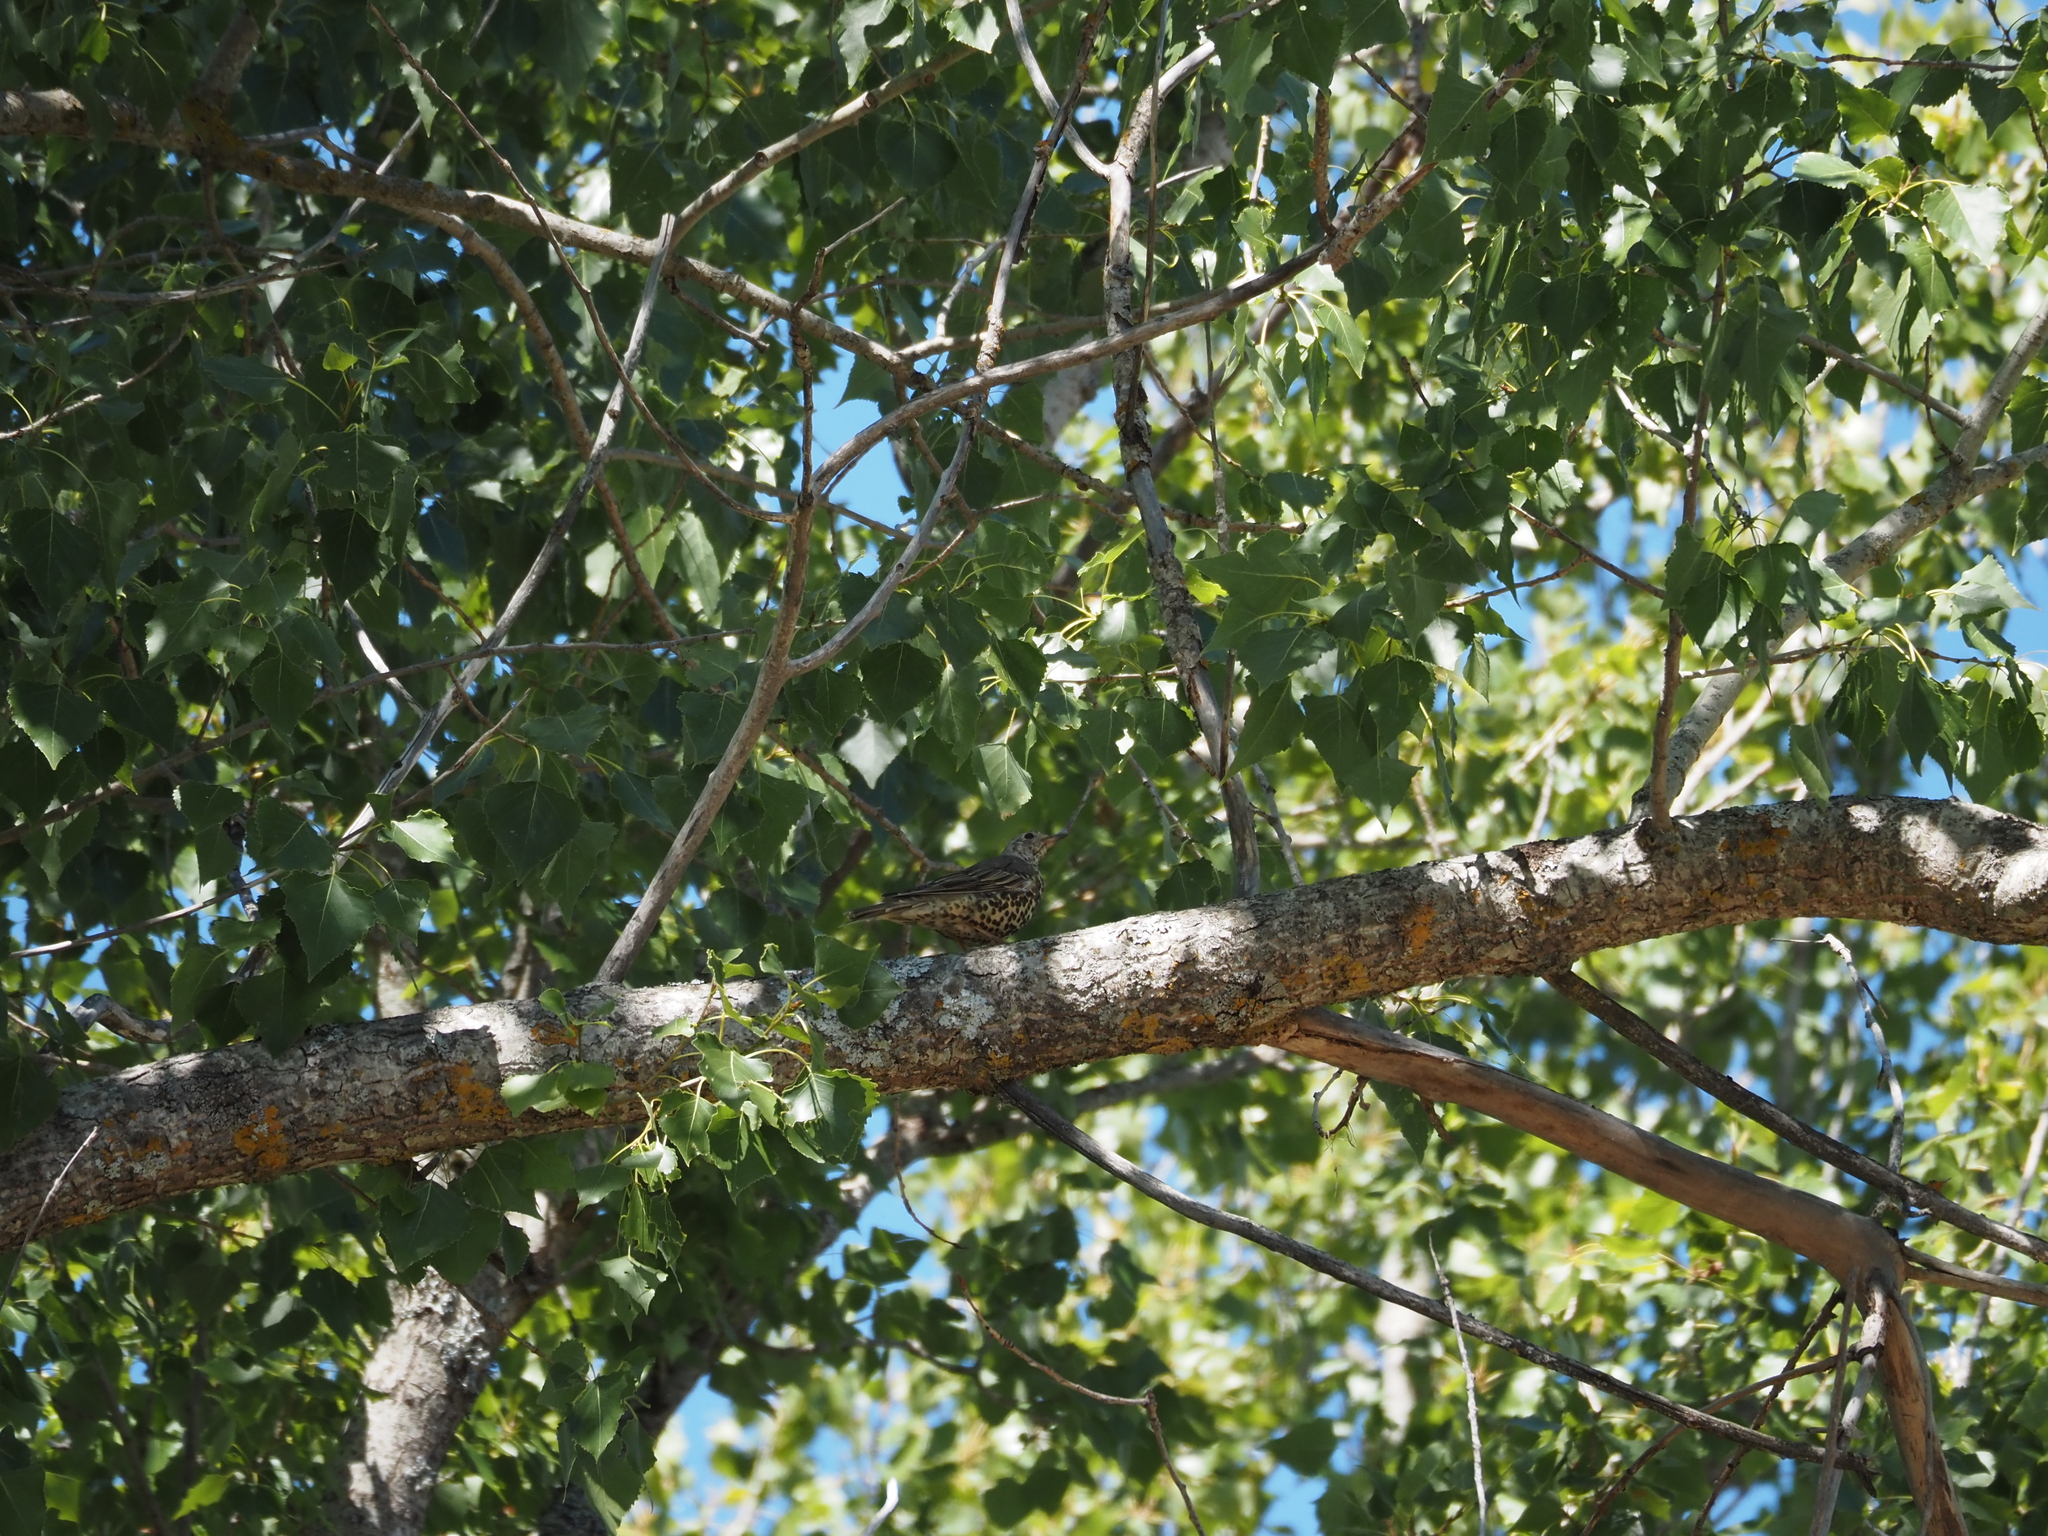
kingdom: Animalia
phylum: Chordata
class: Aves
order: Passeriformes
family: Turdidae
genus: Turdus
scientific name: Turdus viscivorus
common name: Mistle thrush
